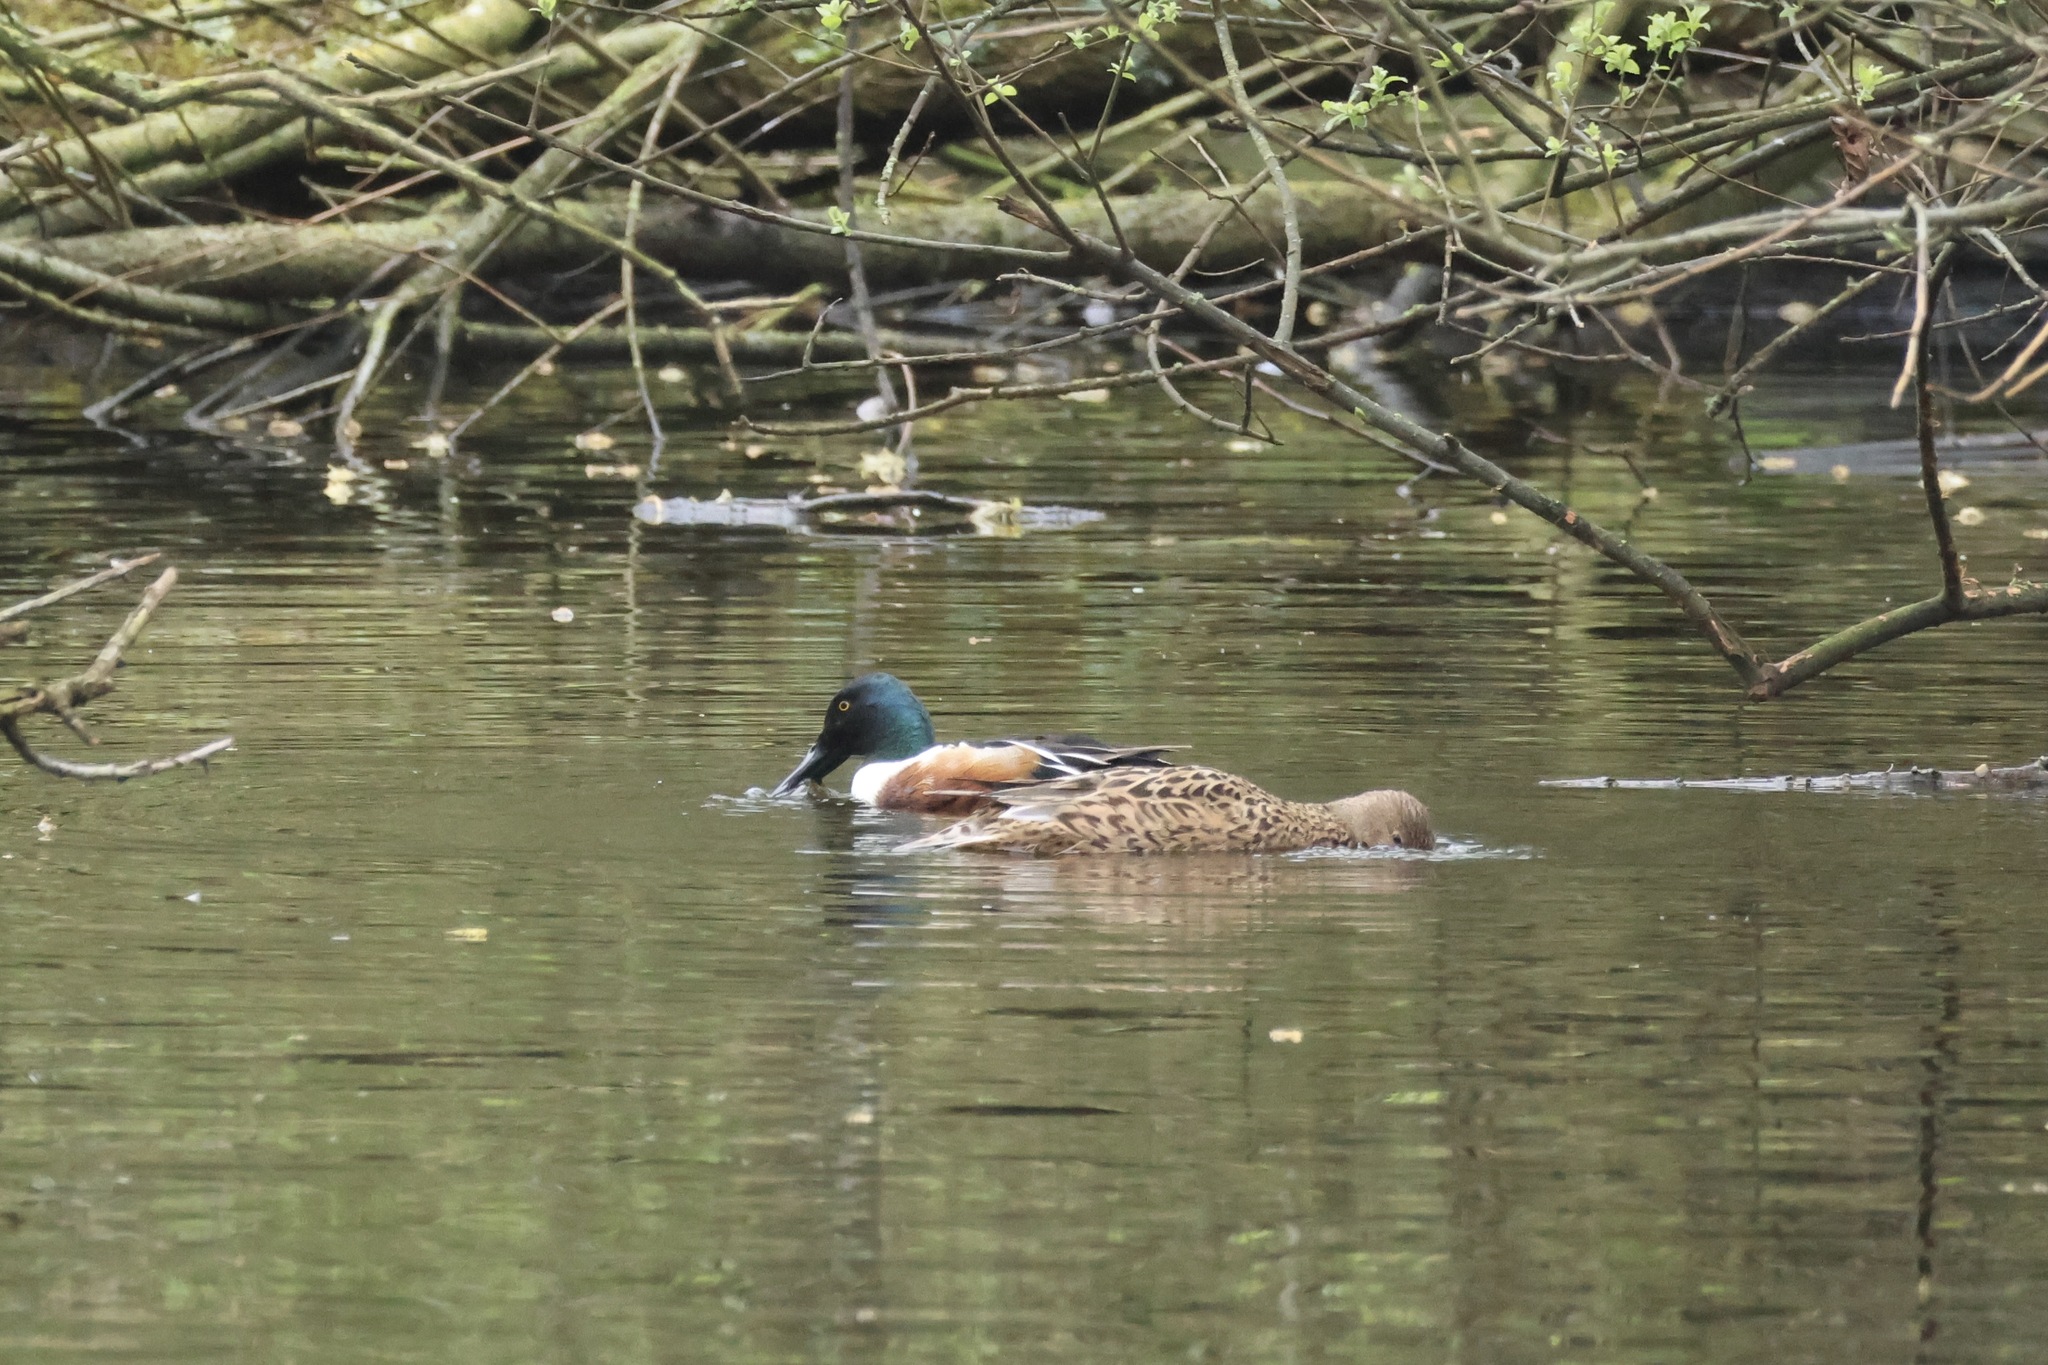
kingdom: Animalia
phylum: Chordata
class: Aves
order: Anseriformes
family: Anatidae
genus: Spatula
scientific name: Spatula clypeata
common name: Northern shoveler
